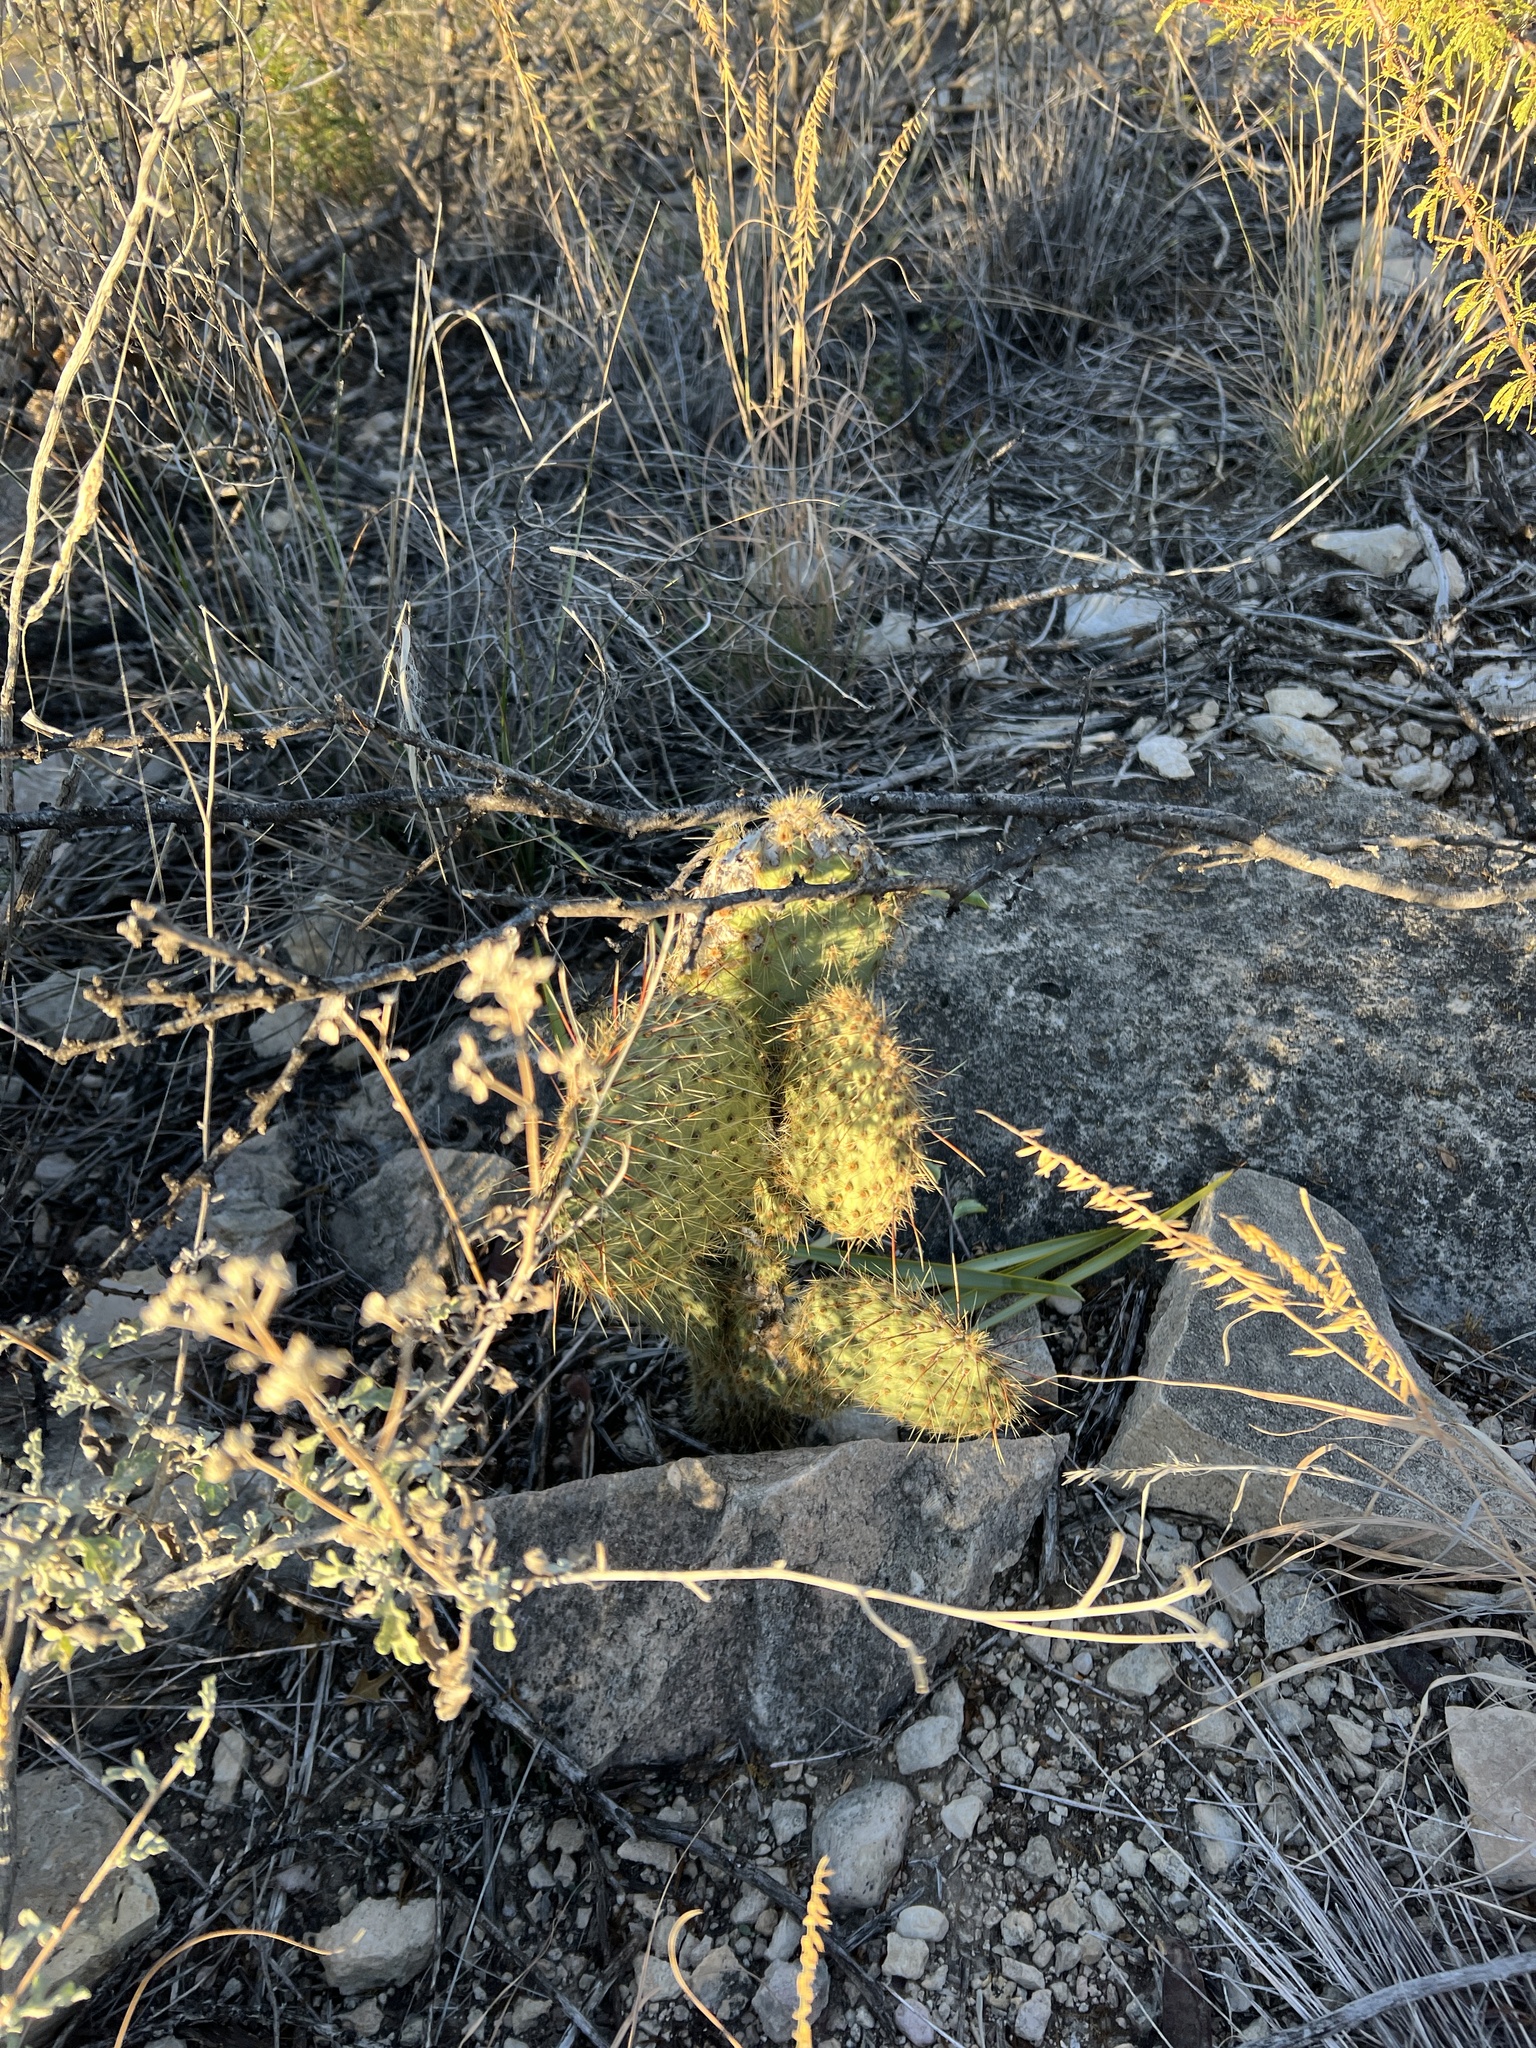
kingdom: Plantae
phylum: Tracheophyta
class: Magnoliopsida
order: Caryophyllales
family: Cactaceae
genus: Opuntia
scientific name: Opuntia strigil
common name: Marble-fruit prickly-pear
